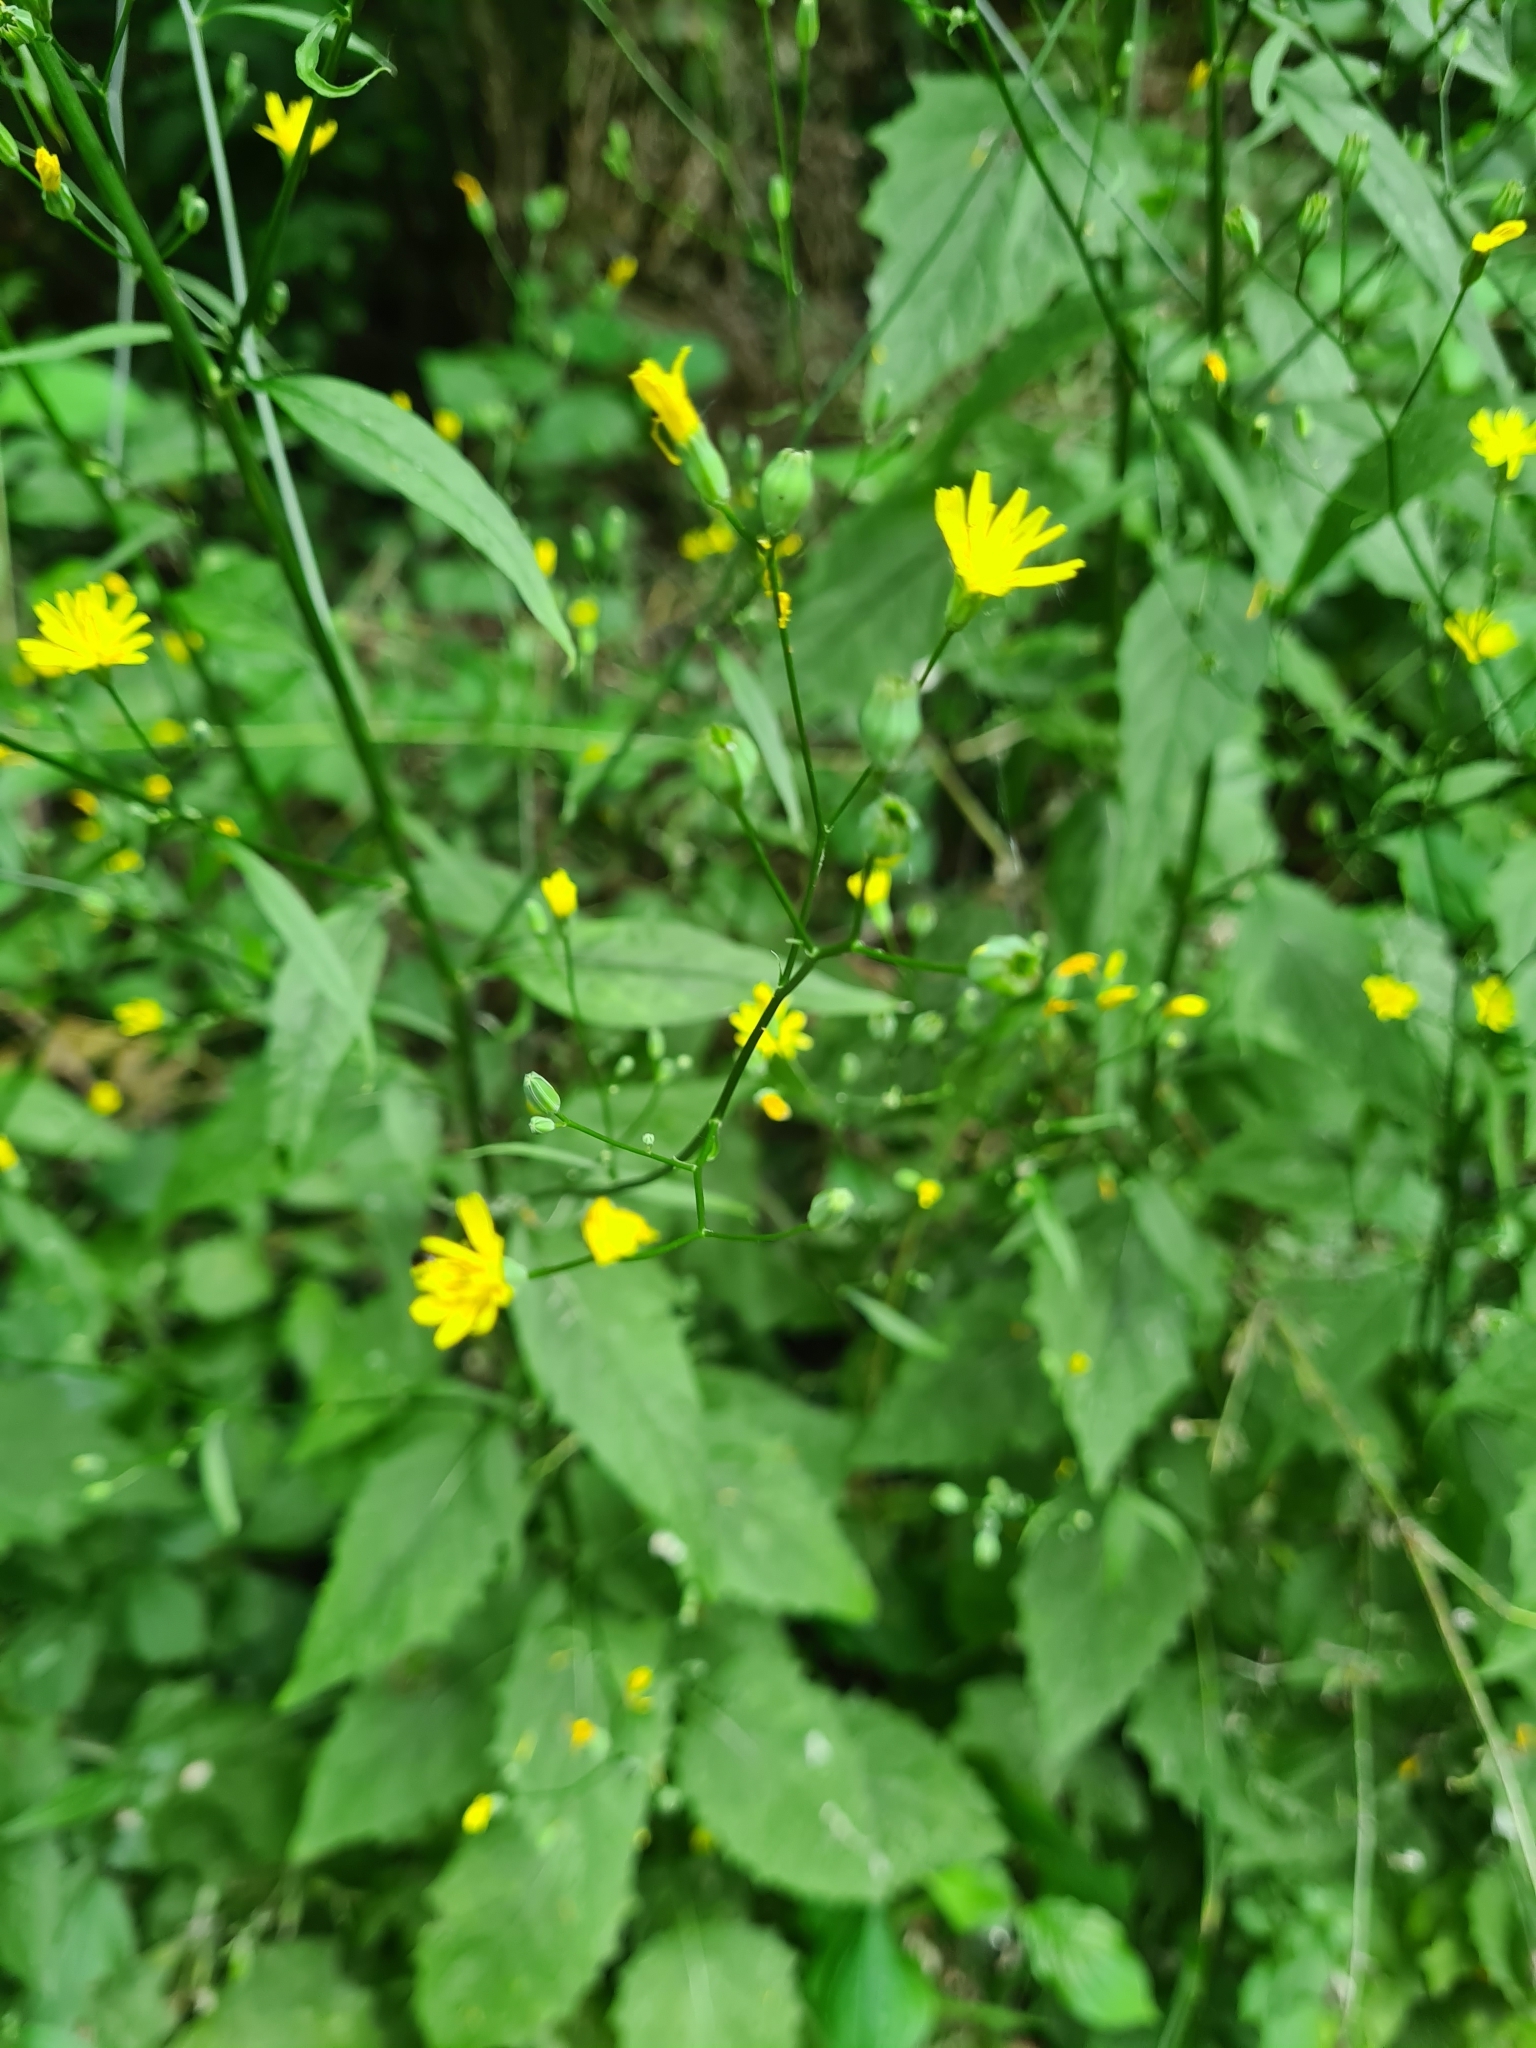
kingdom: Plantae
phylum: Tracheophyta
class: Magnoliopsida
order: Asterales
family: Asteraceae
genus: Lapsana
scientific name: Lapsana communis
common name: Nipplewort
